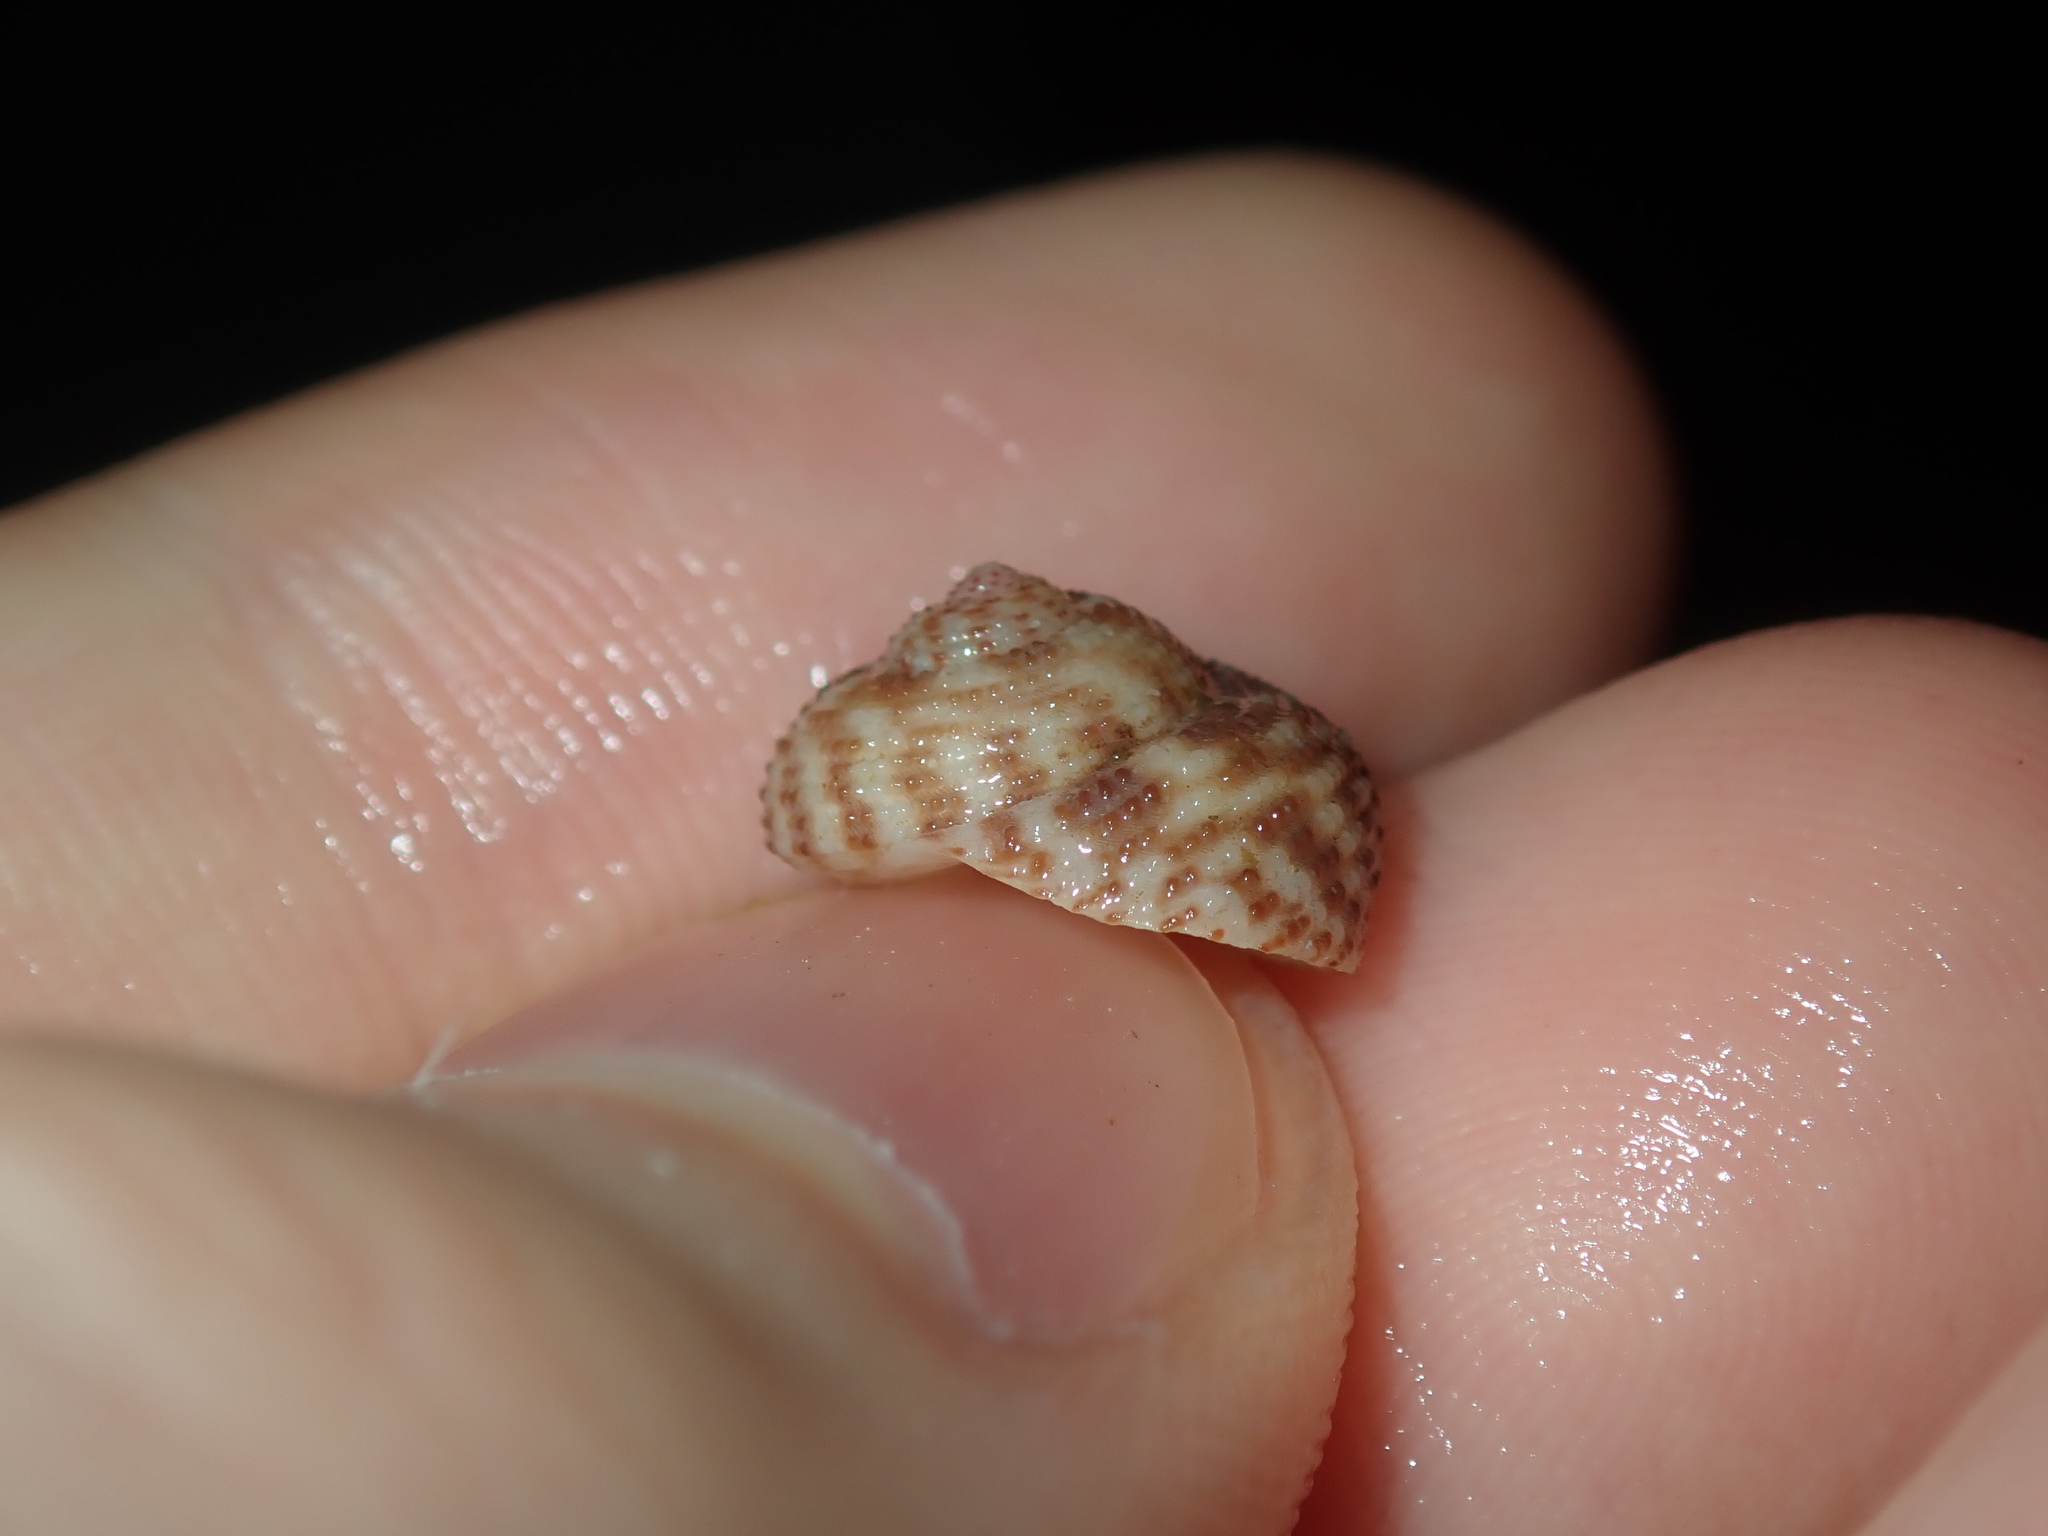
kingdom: Animalia
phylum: Mollusca
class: Gastropoda
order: Trochida
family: Trochidae
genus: Clanculus
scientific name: Clanculus floridus
